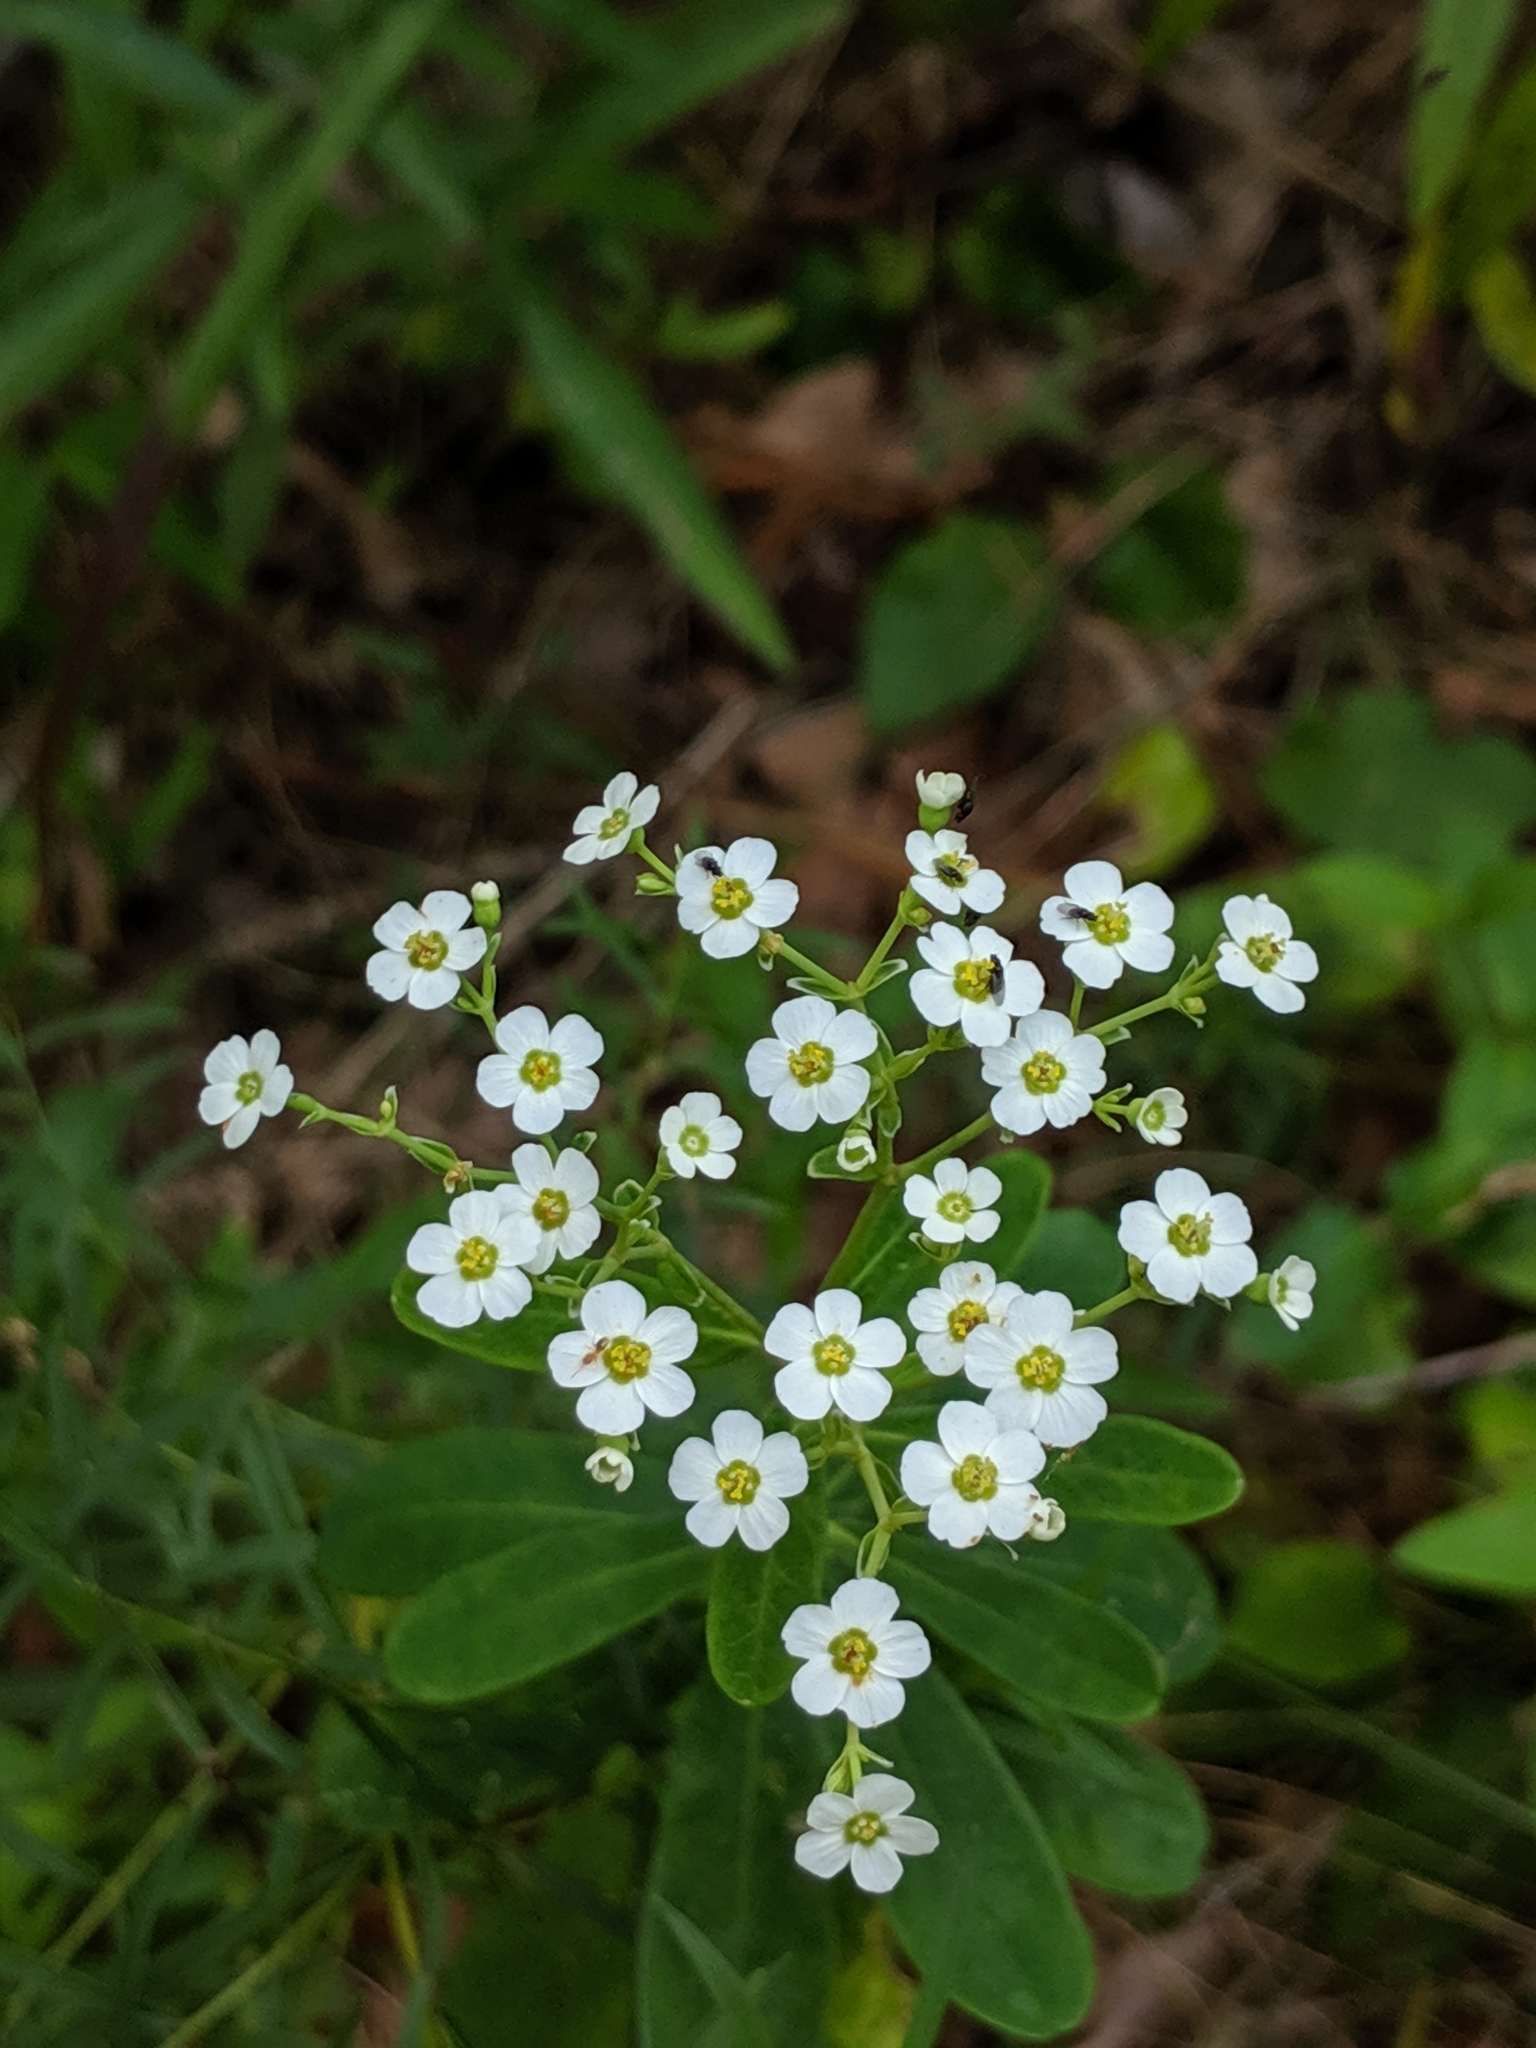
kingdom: Plantae
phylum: Tracheophyta
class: Magnoliopsida
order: Malpighiales
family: Euphorbiaceae
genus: Euphorbia
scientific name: Euphorbia corollata
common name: Flowering spurge
